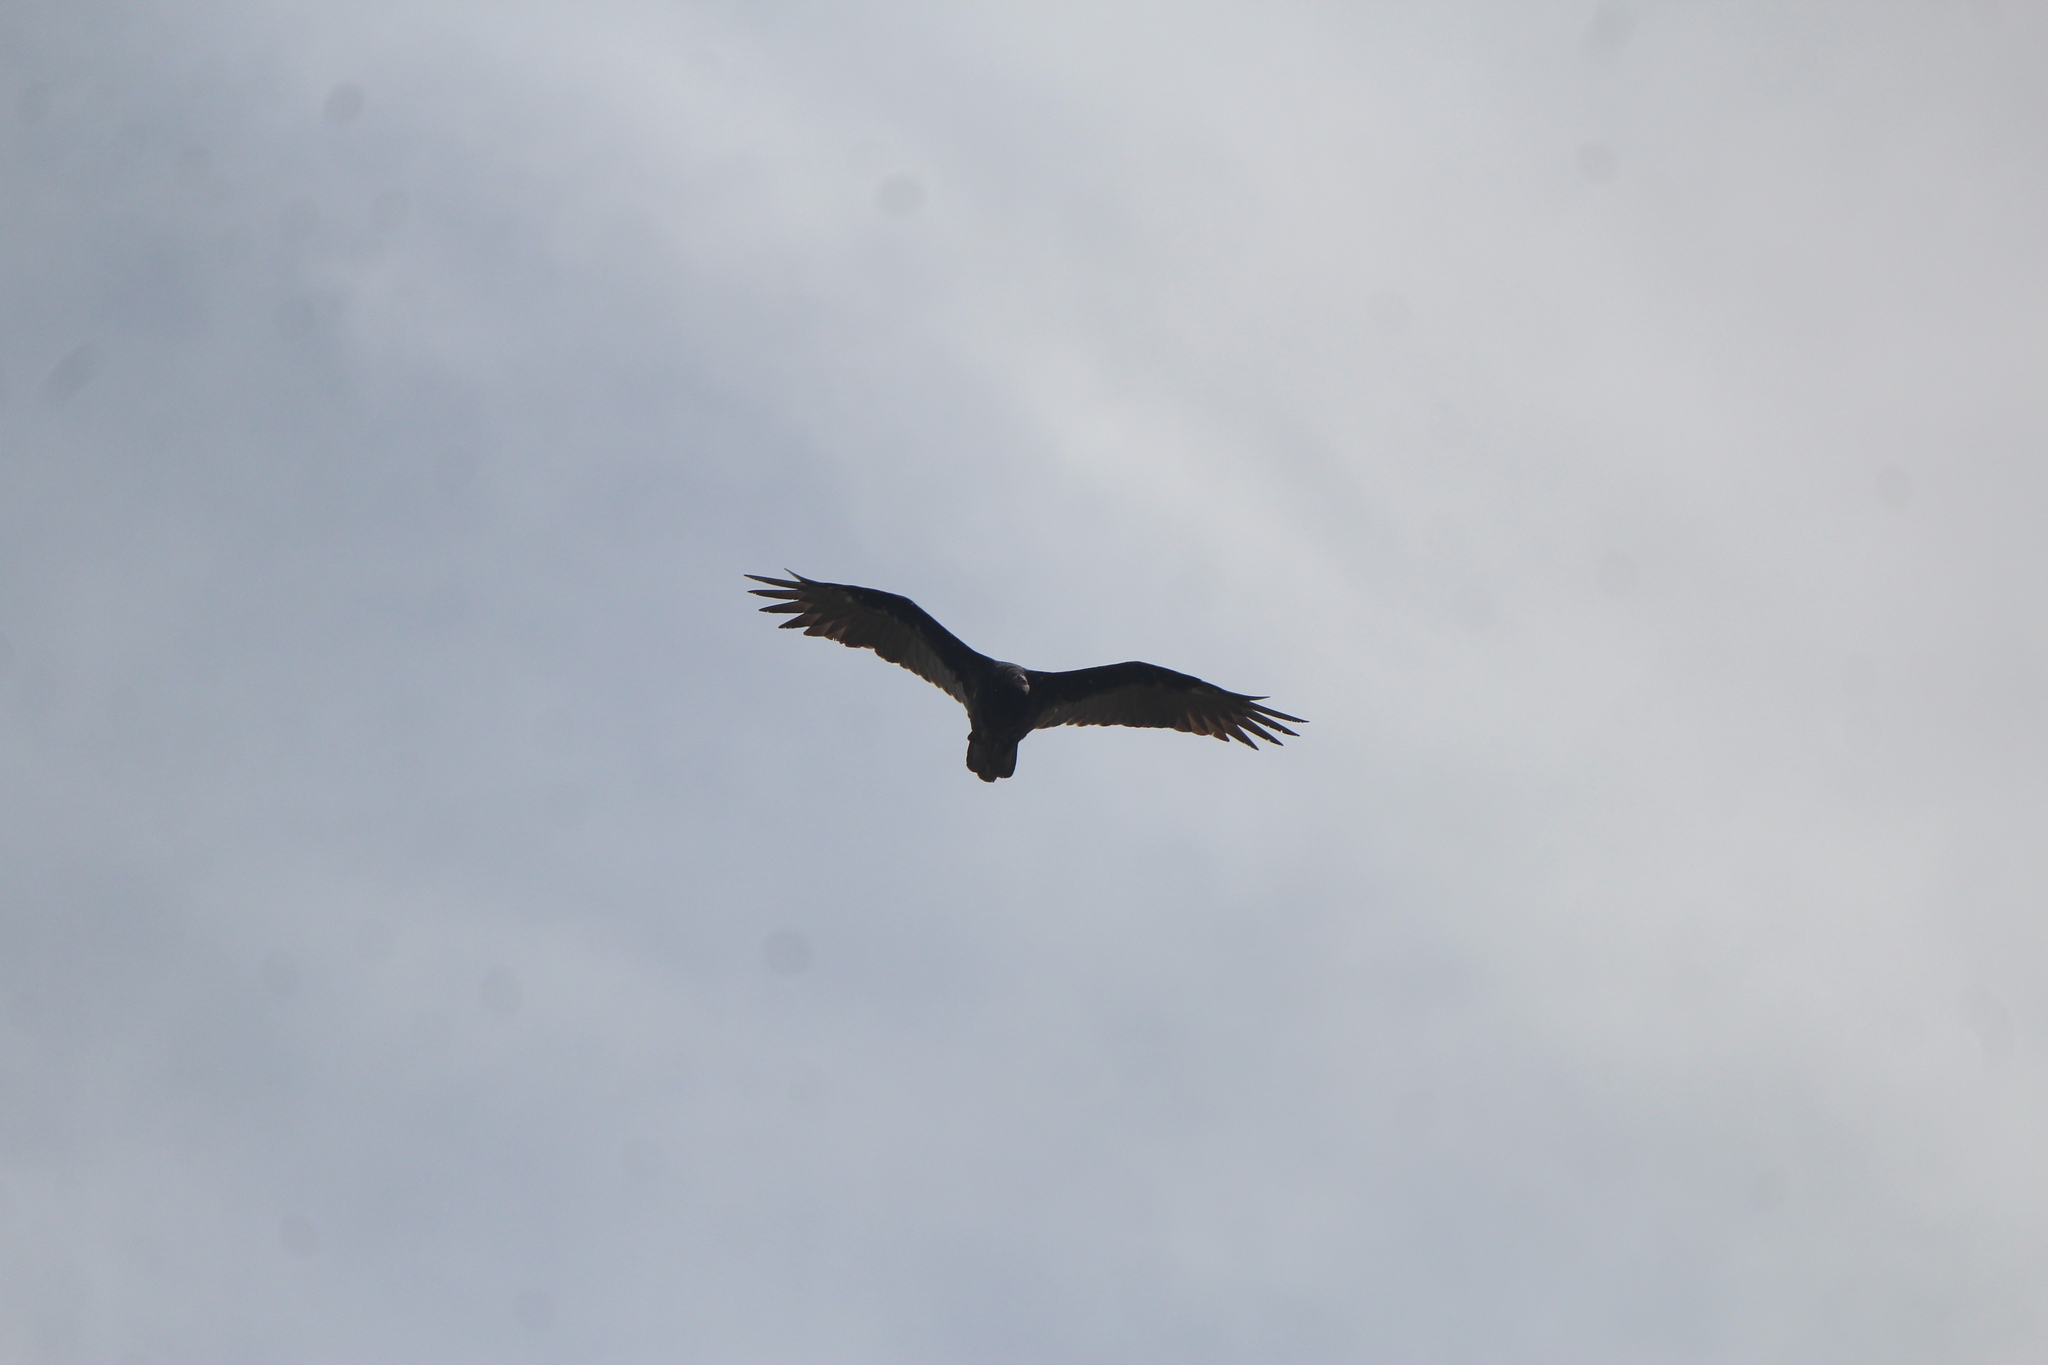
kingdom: Animalia
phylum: Chordata
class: Aves
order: Accipitriformes
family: Cathartidae
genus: Cathartes
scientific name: Cathartes aura
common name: Turkey vulture
